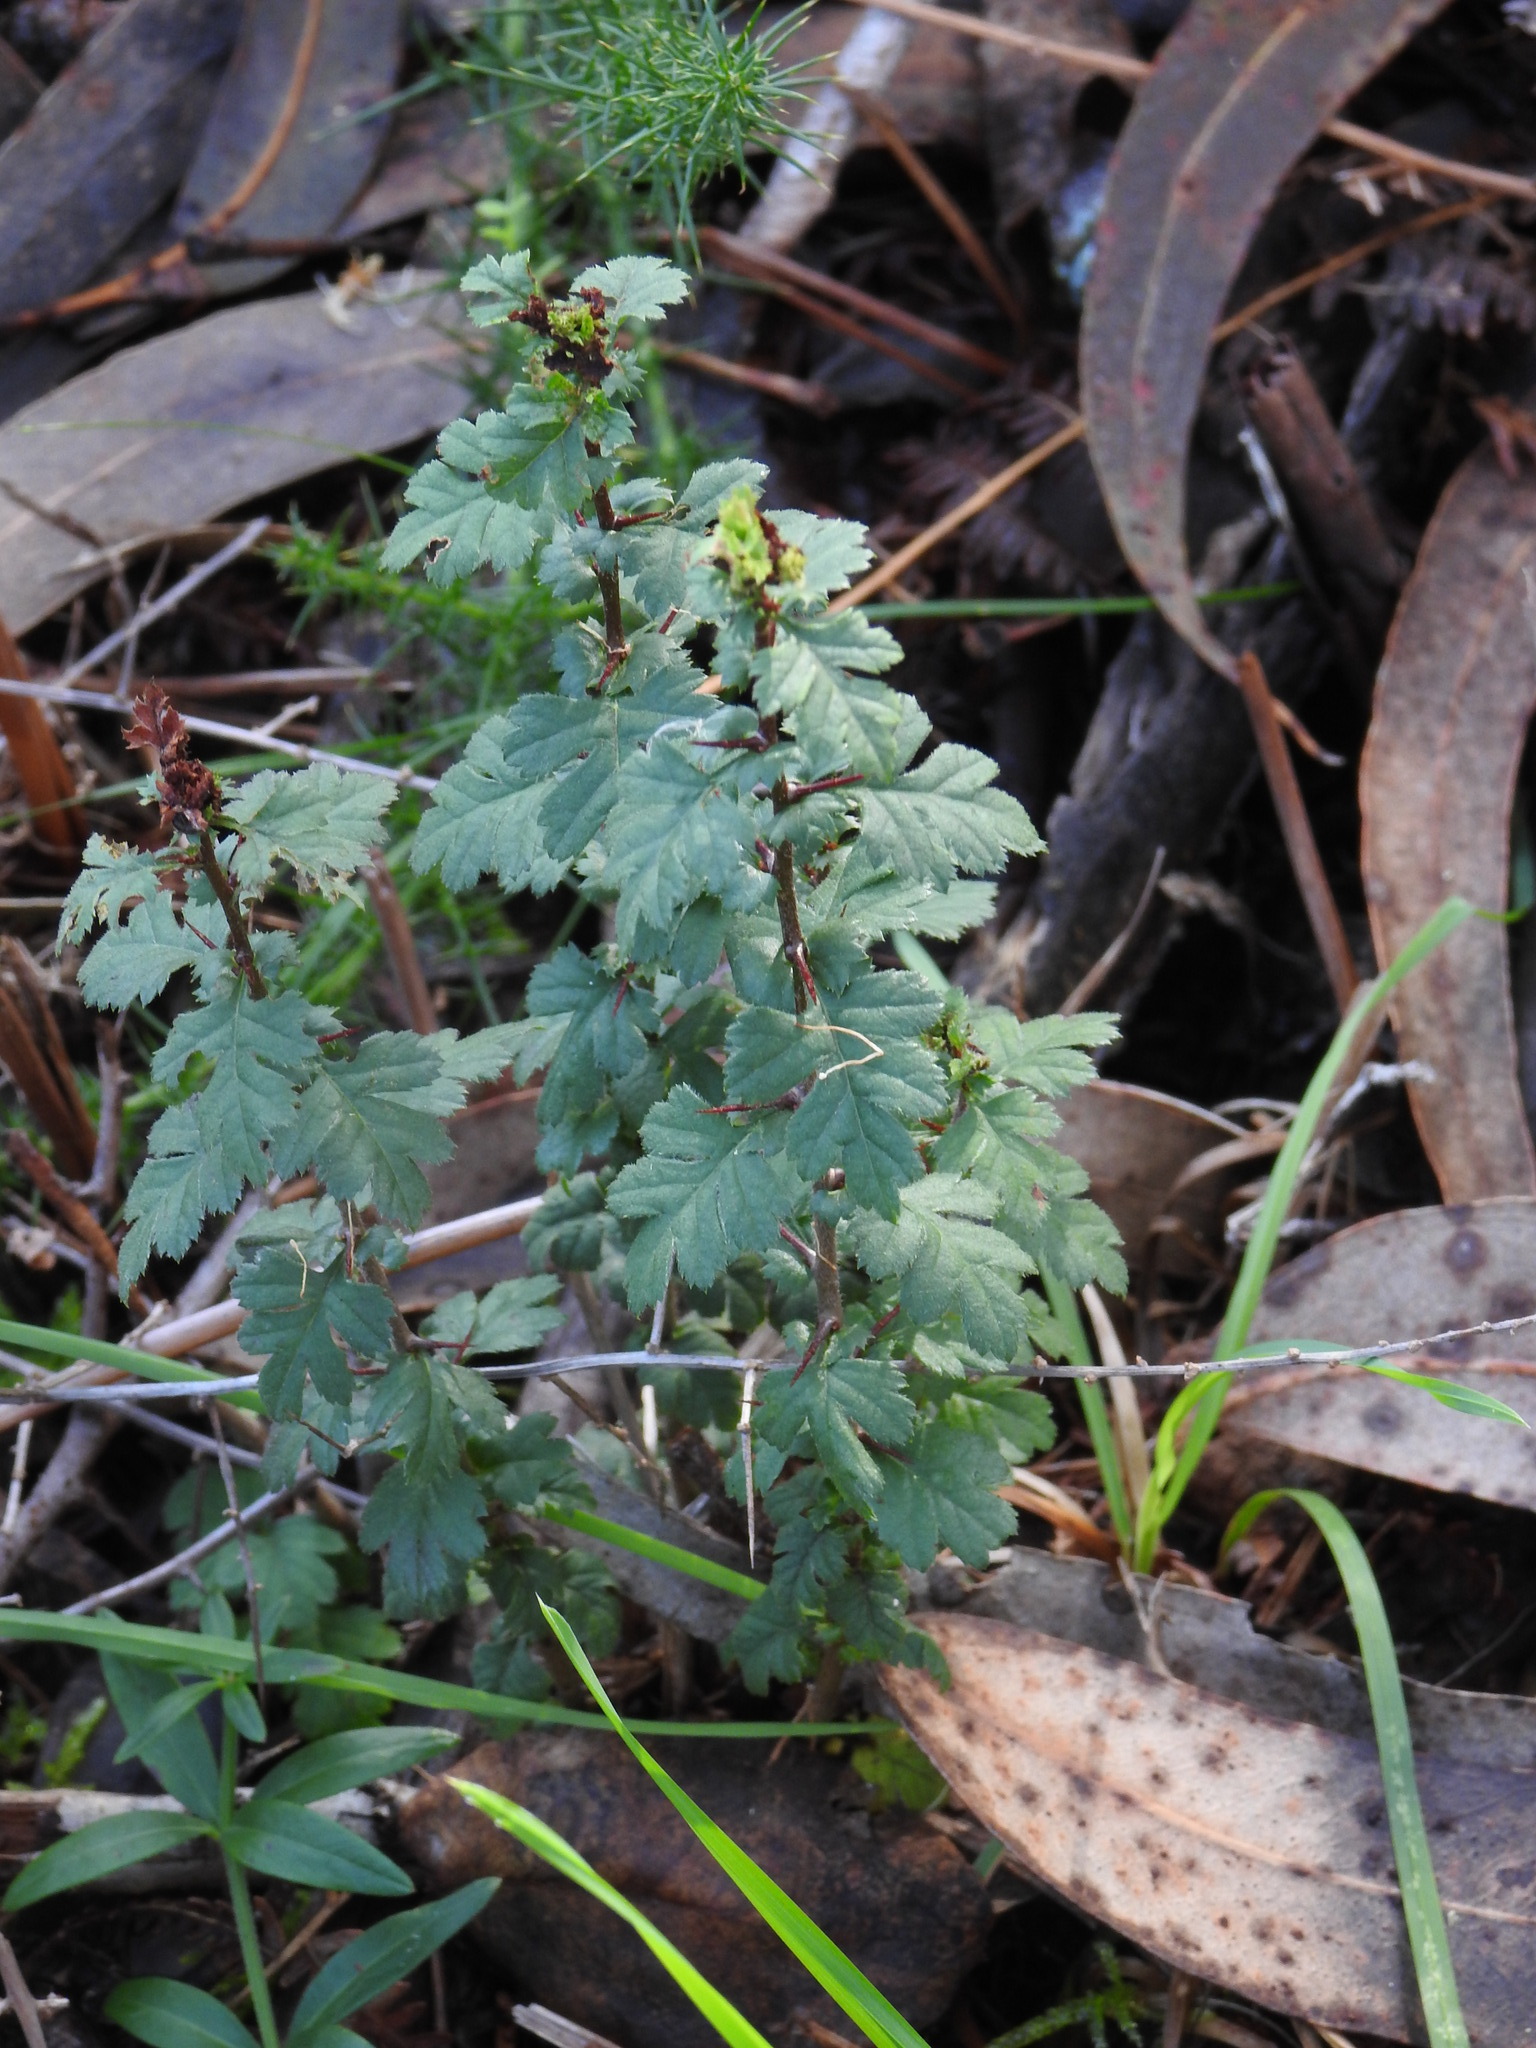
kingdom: Plantae
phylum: Tracheophyta
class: Magnoliopsida
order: Rosales
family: Rosaceae
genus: Crataegus
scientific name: Crataegus monogyna
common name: Hawthorn
